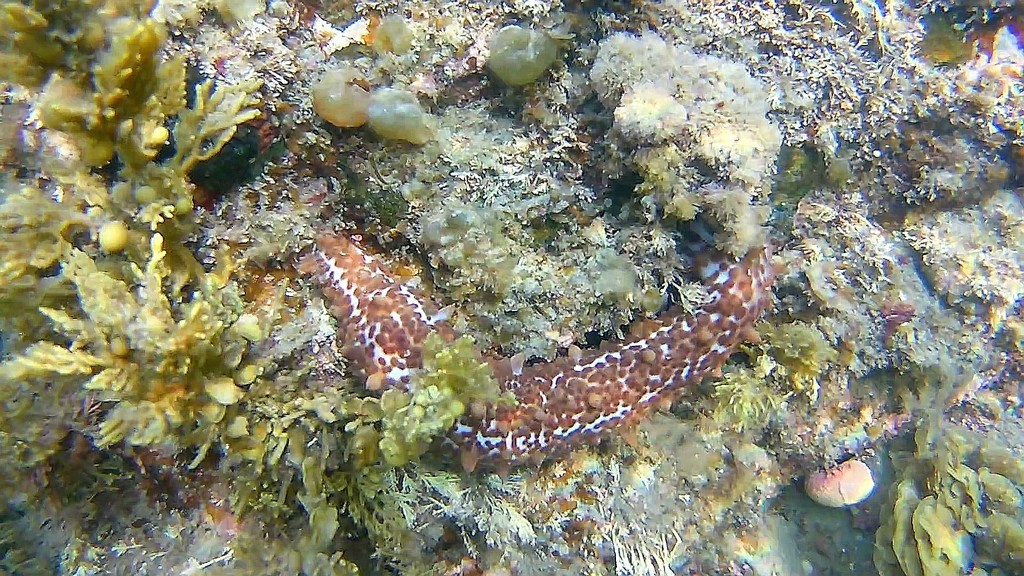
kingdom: Animalia
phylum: Echinodermata
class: Holothuroidea
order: Synallactida
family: Stichopodidae
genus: Australostichopus
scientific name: Australostichopus mollis
